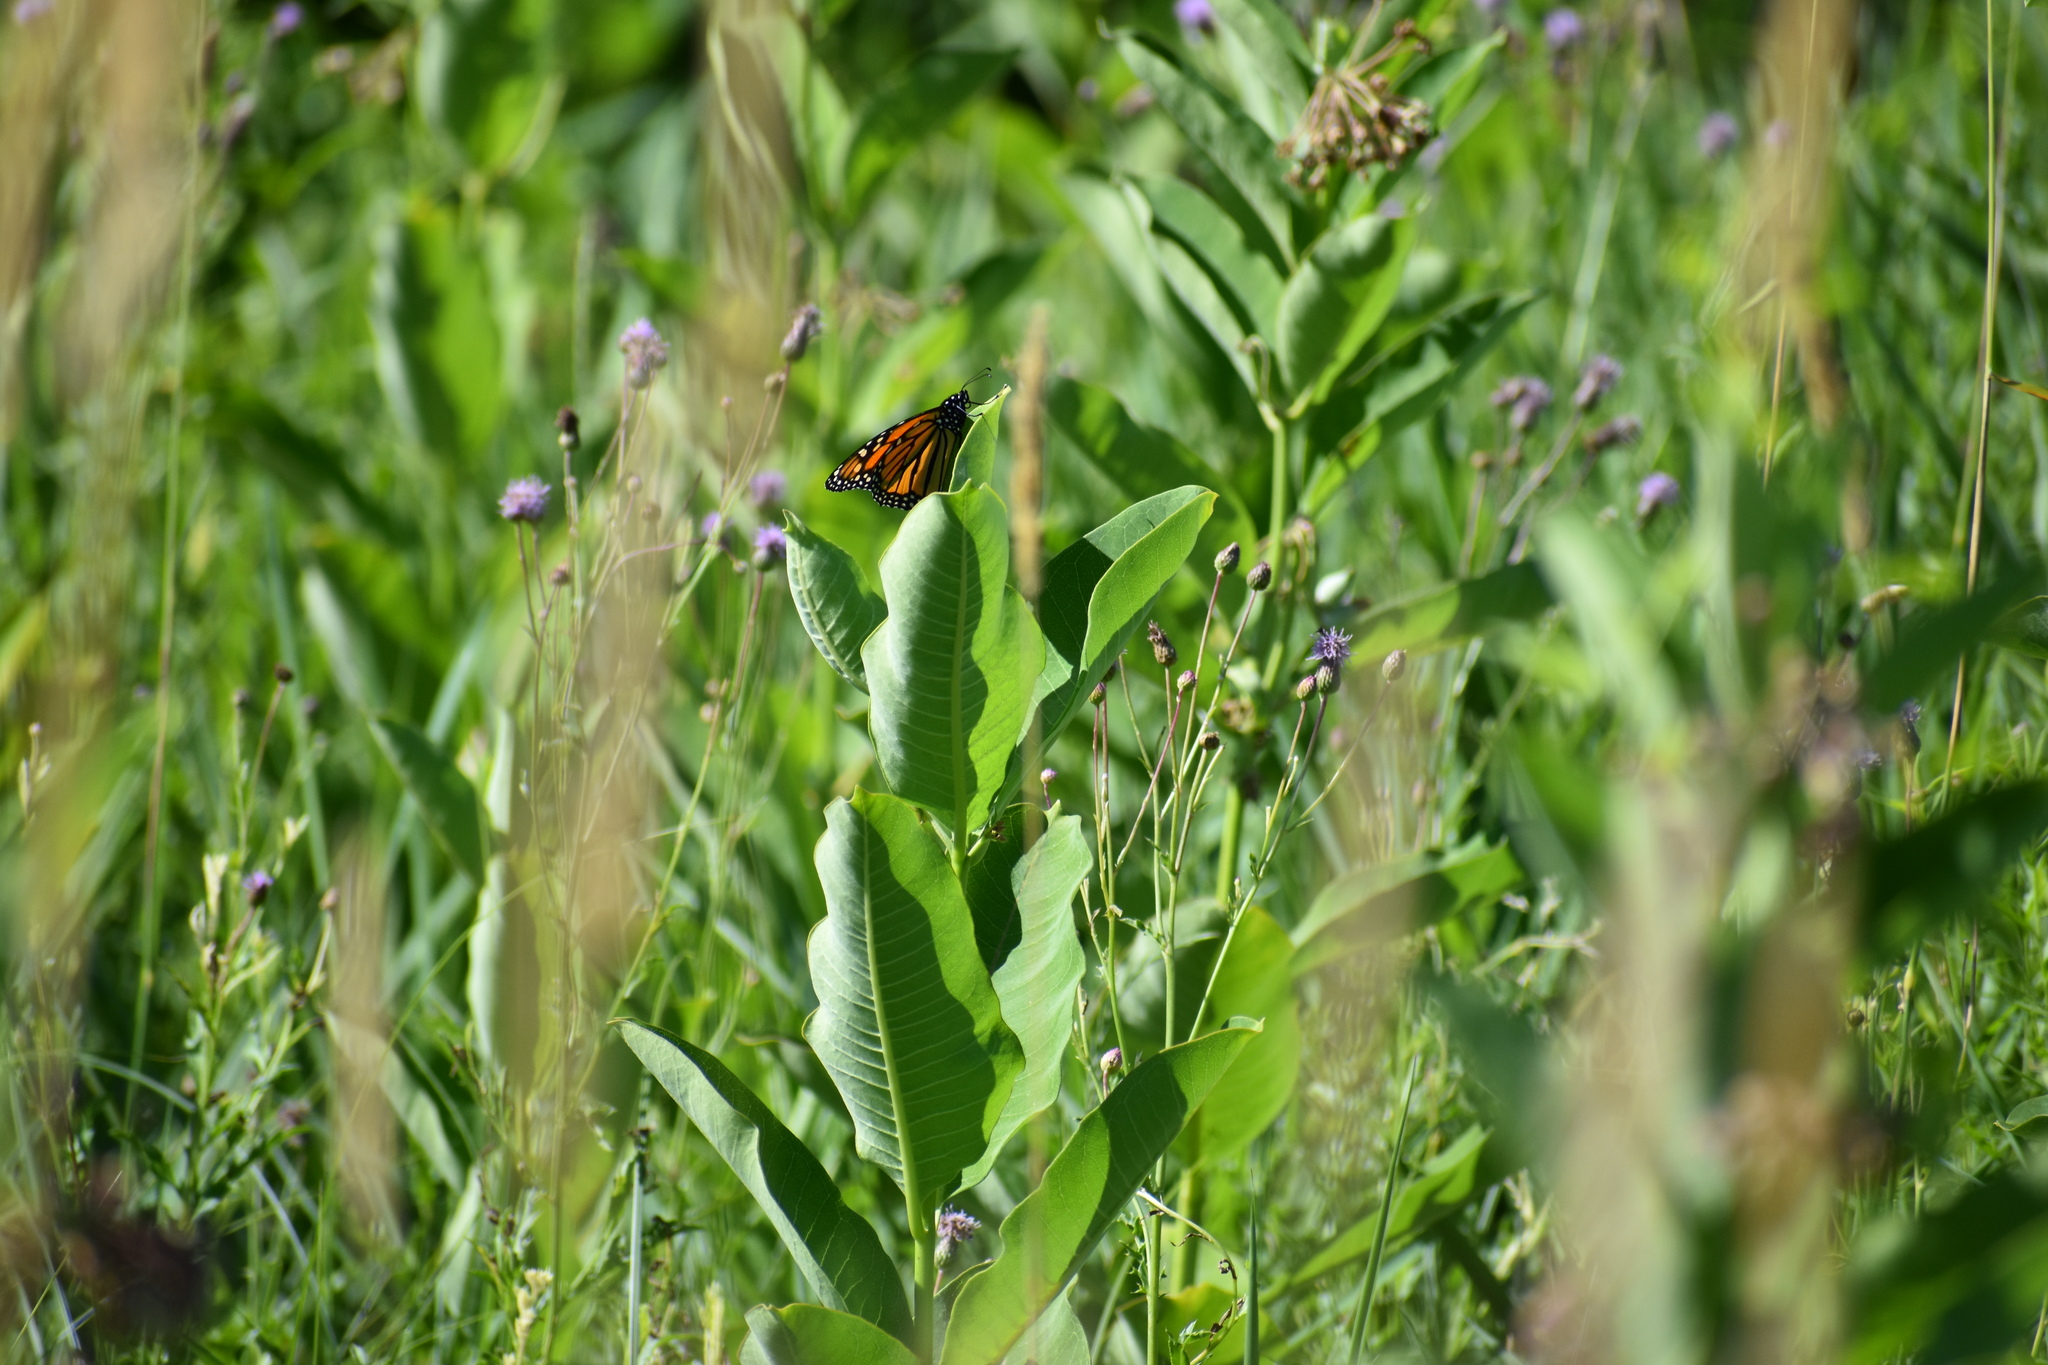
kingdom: Animalia
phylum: Arthropoda
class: Insecta
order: Lepidoptera
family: Nymphalidae
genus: Danaus
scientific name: Danaus plexippus
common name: Monarch
